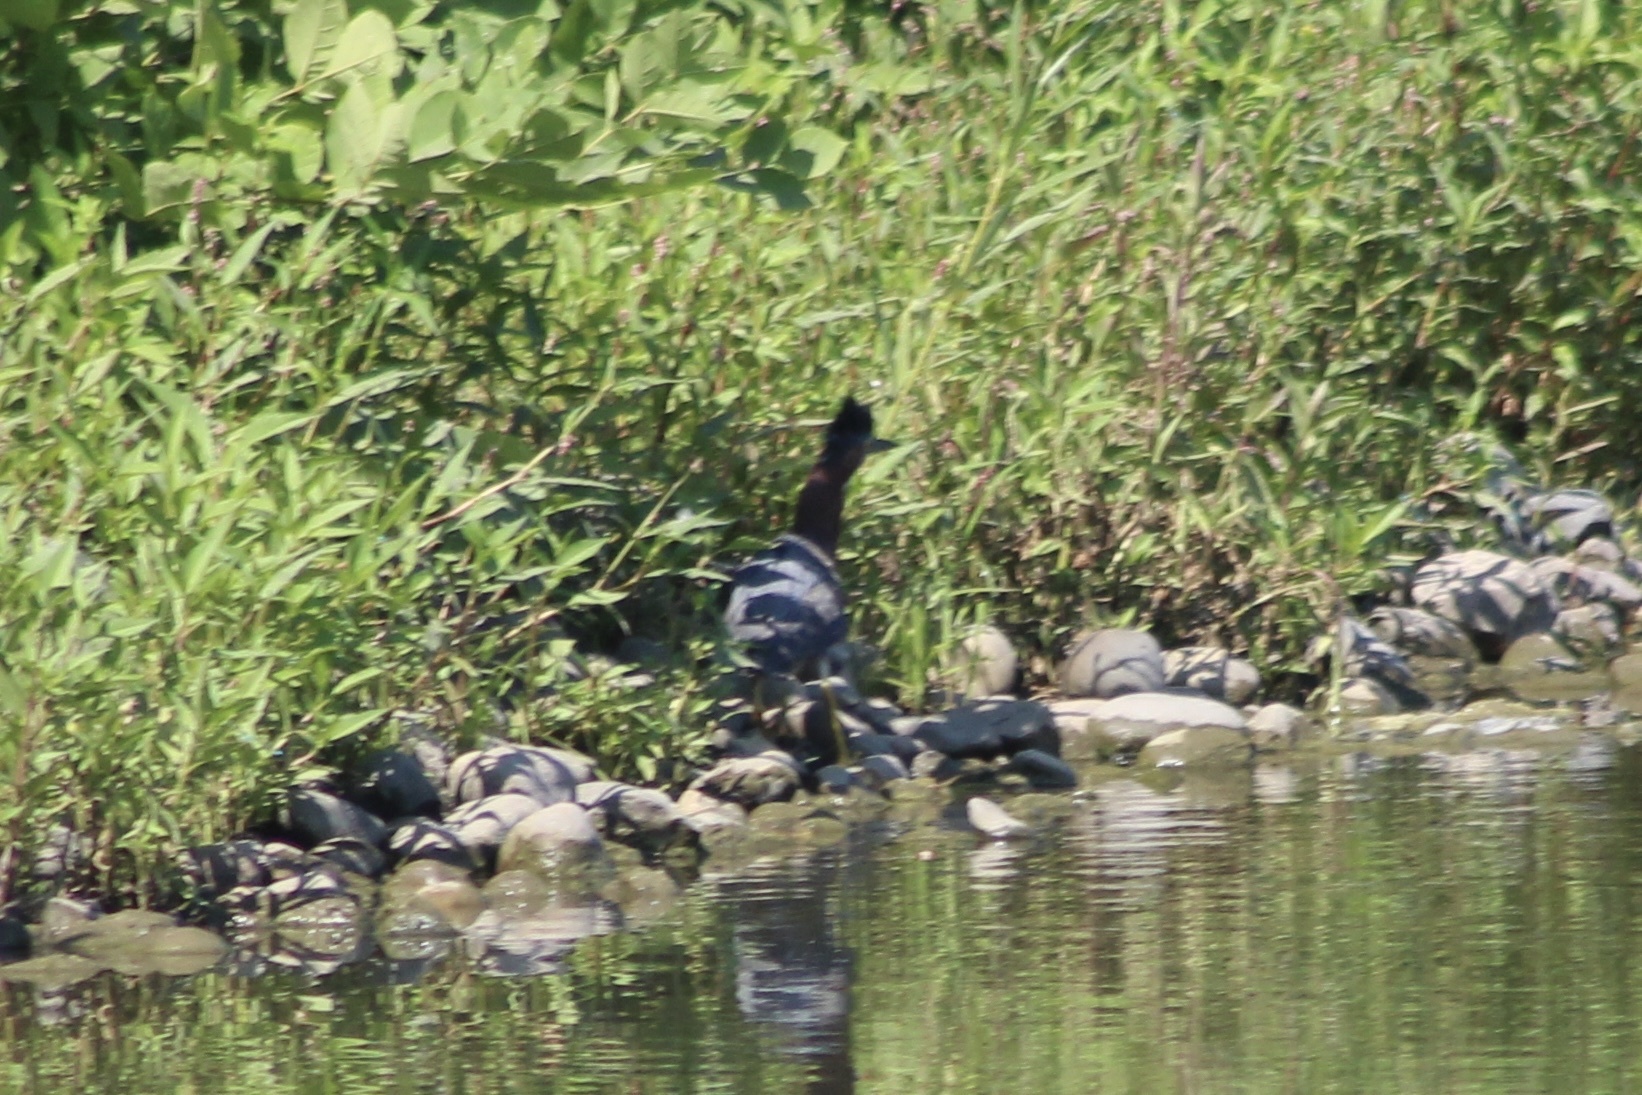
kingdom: Animalia
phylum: Chordata
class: Aves
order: Pelecaniformes
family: Ardeidae
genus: Butorides
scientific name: Butorides virescens
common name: Green heron
